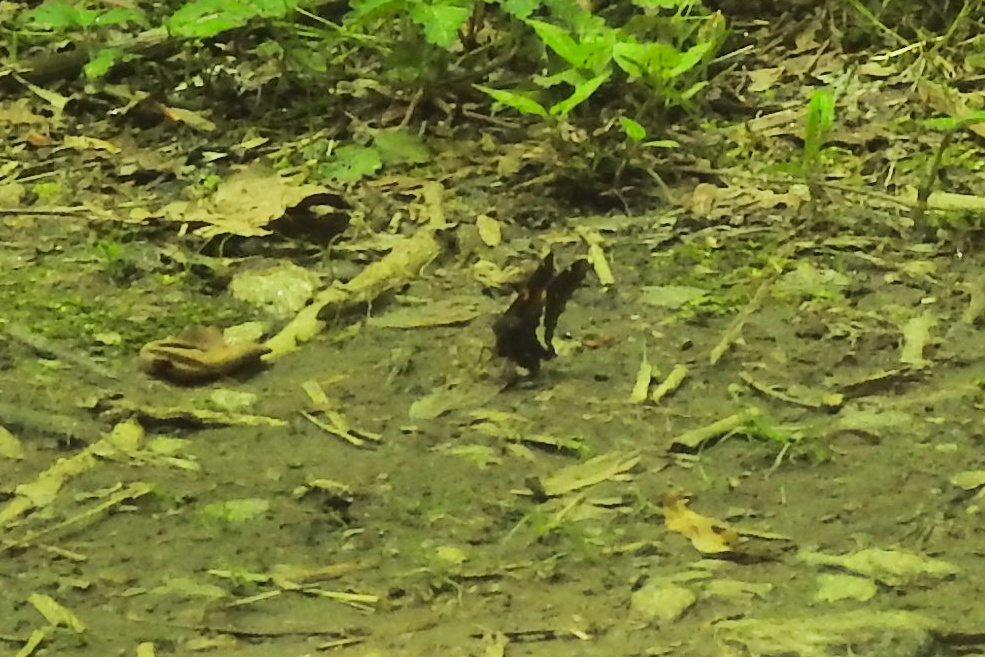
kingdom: Animalia
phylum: Arthropoda
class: Insecta
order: Lepidoptera
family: Hesperiidae
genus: Epargyreus
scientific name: Epargyreus clarus
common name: Silver-spotted skipper
